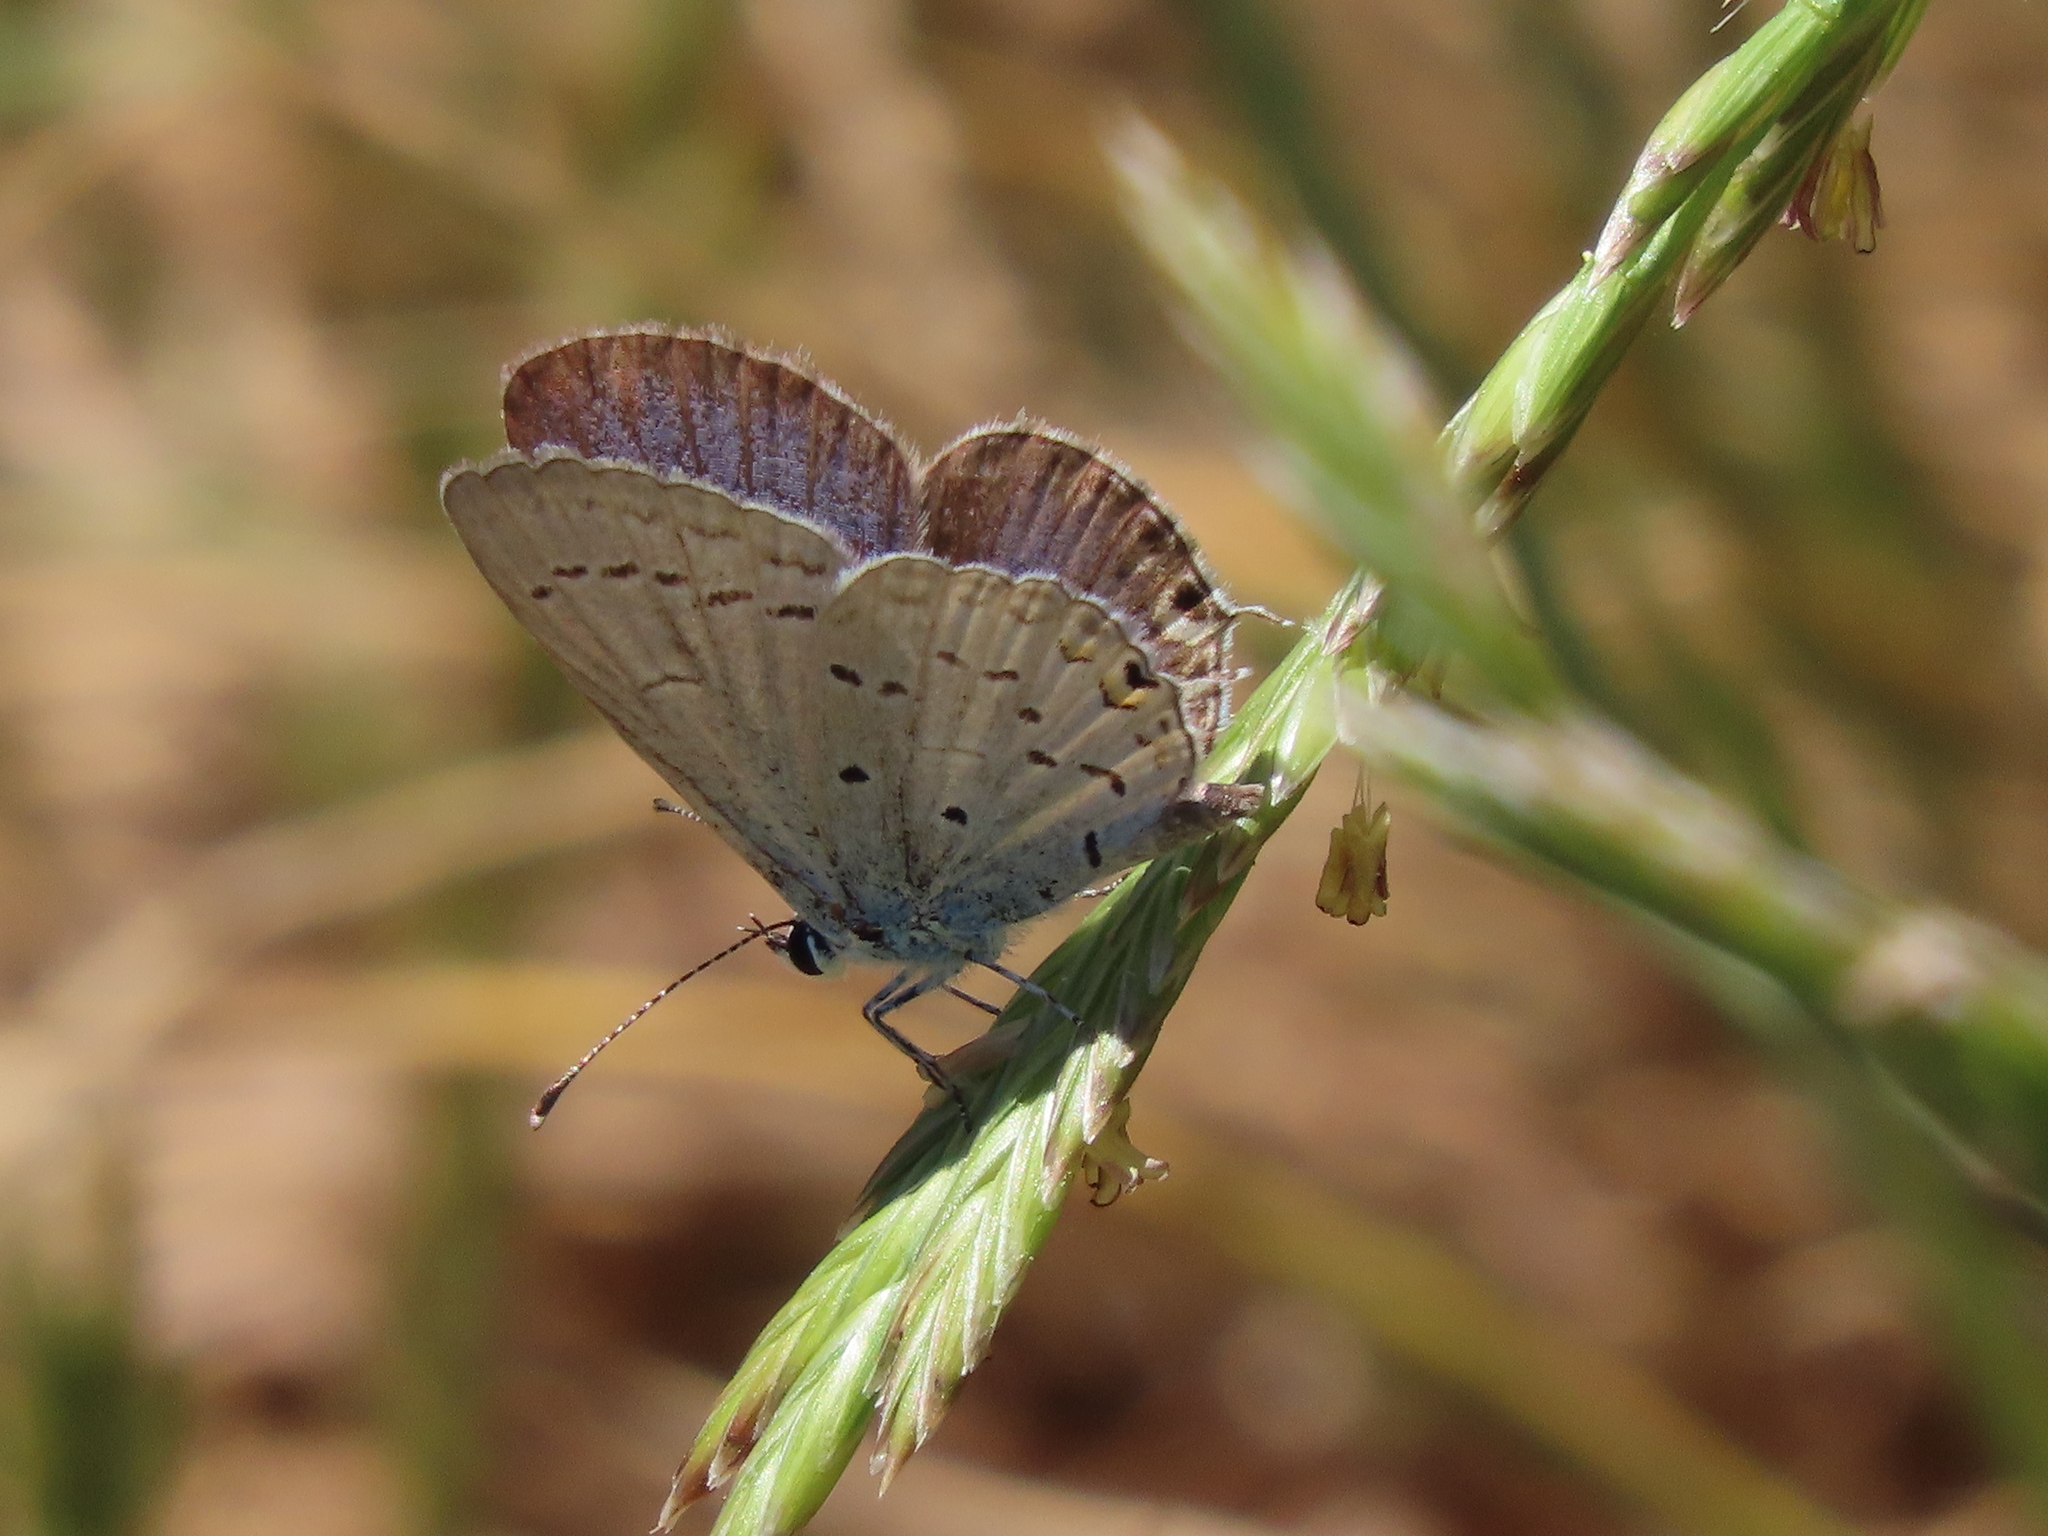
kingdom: Animalia
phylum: Arthropoda
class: Insecta
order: Lepidoptera
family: Lycaenidae
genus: Elkalyce
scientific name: Elkalyce comyntas
